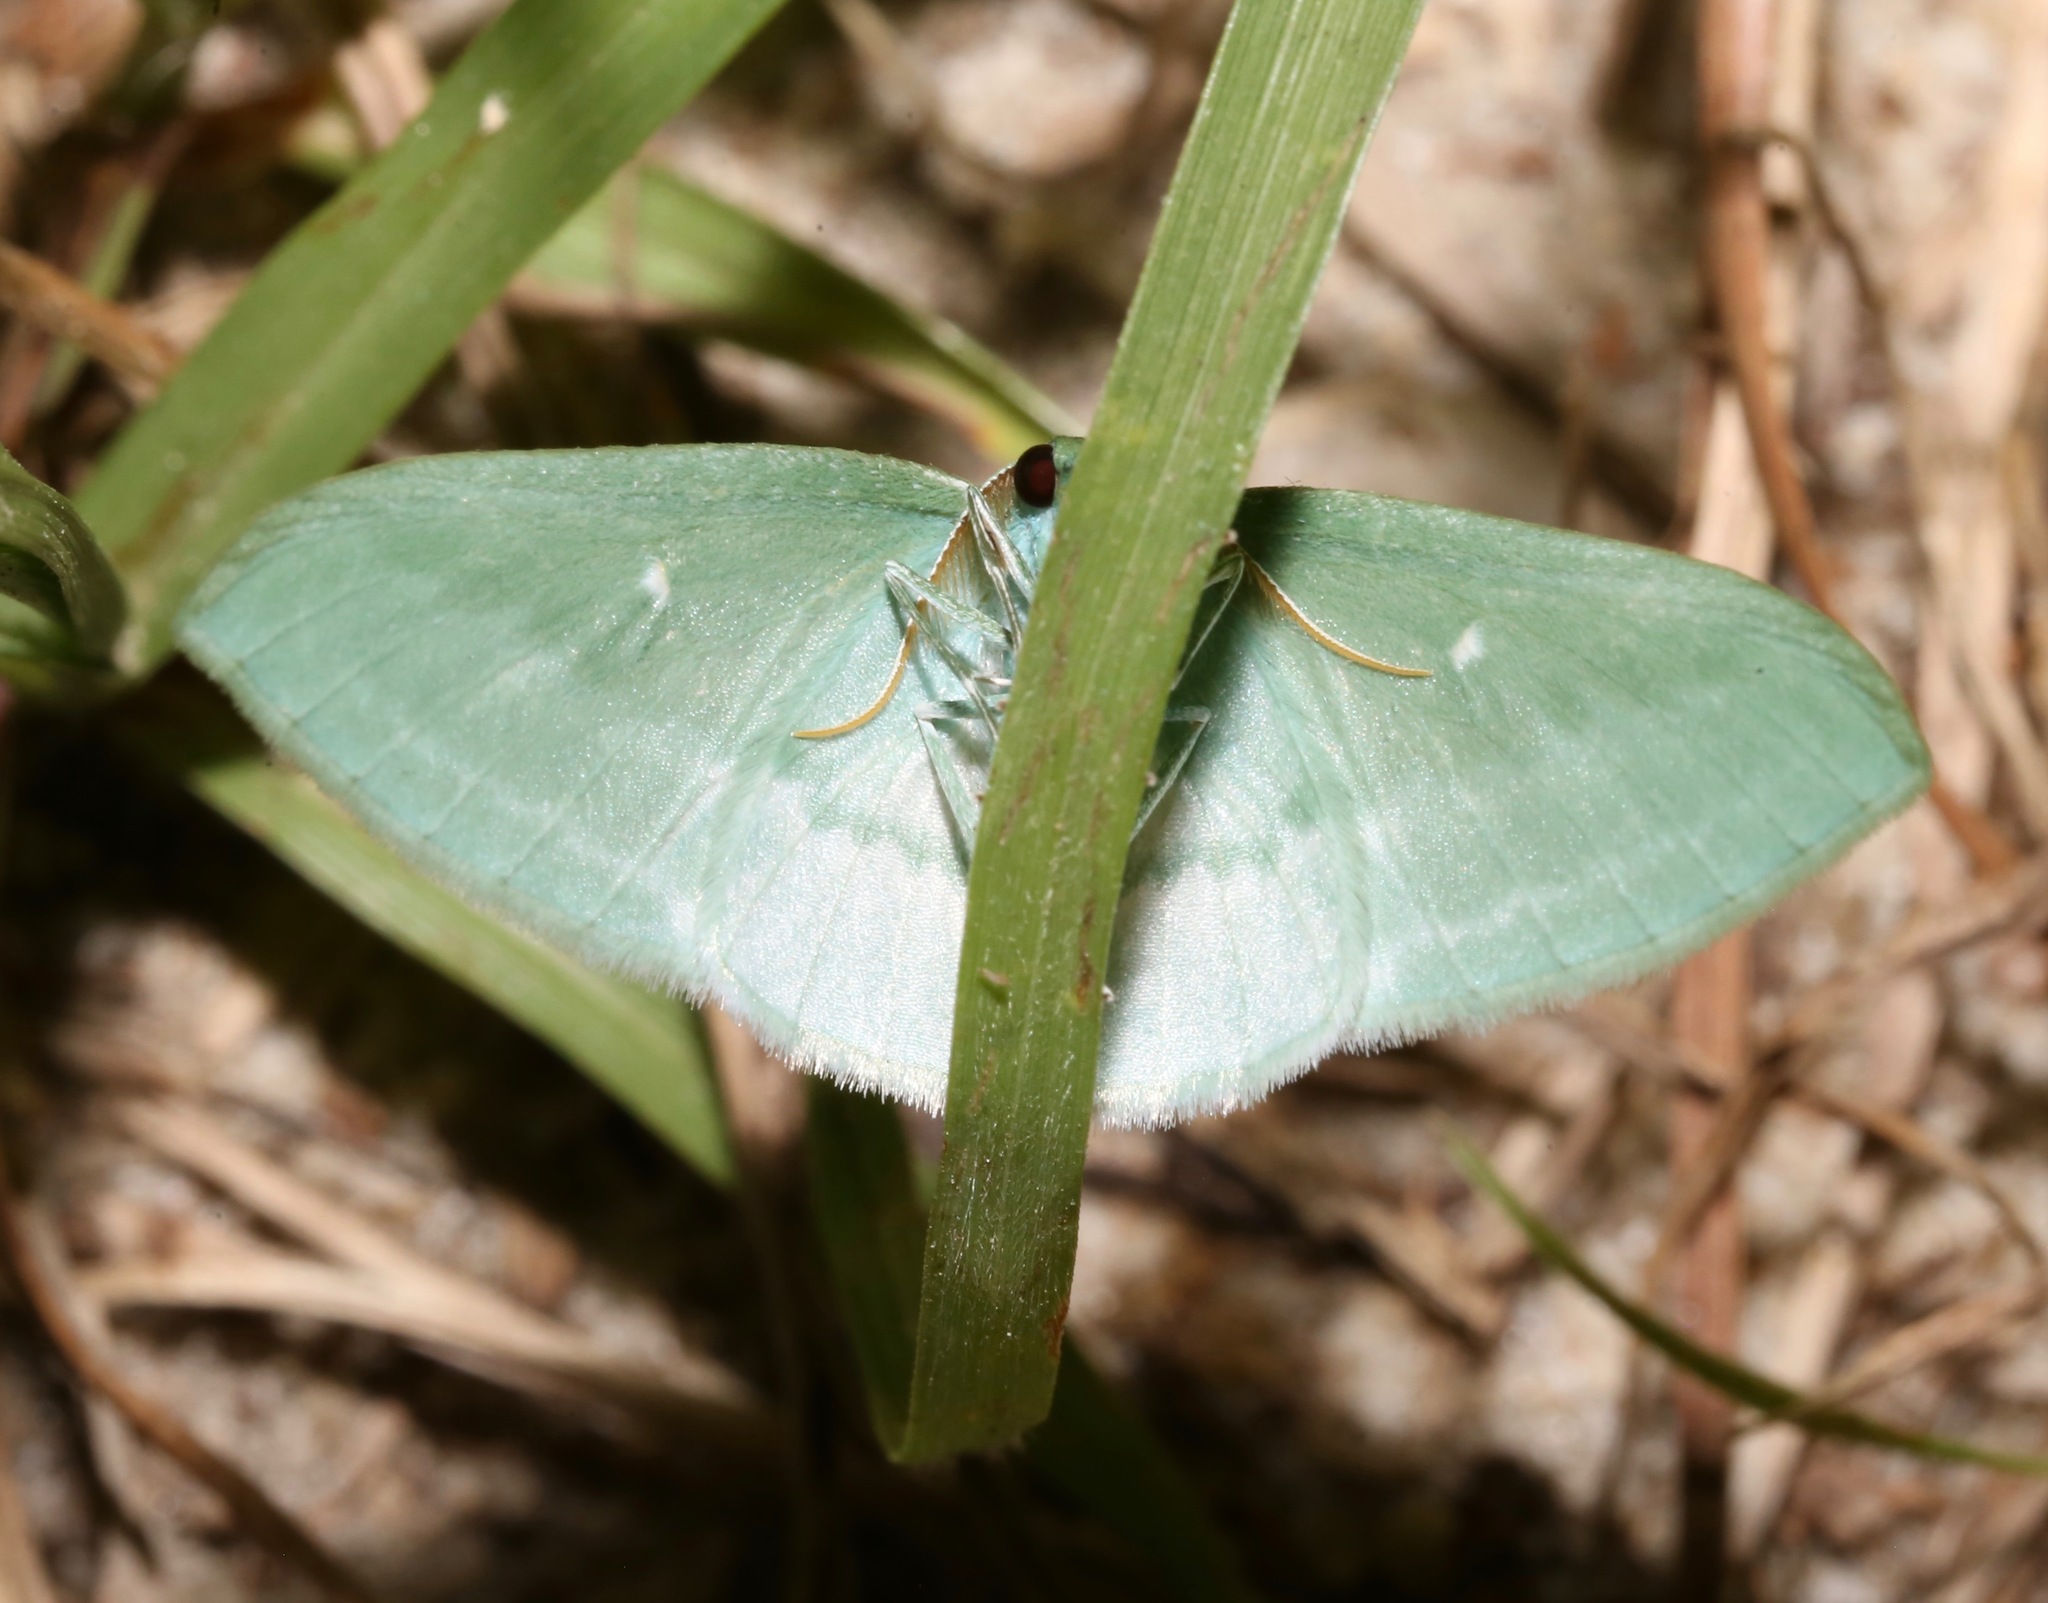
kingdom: Animalia
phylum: Arthropoda
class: Insecta
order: Lepidoptera
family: Geometridae
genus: Dyspteris
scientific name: Dyspteris abortivaria
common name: Bad-wing
